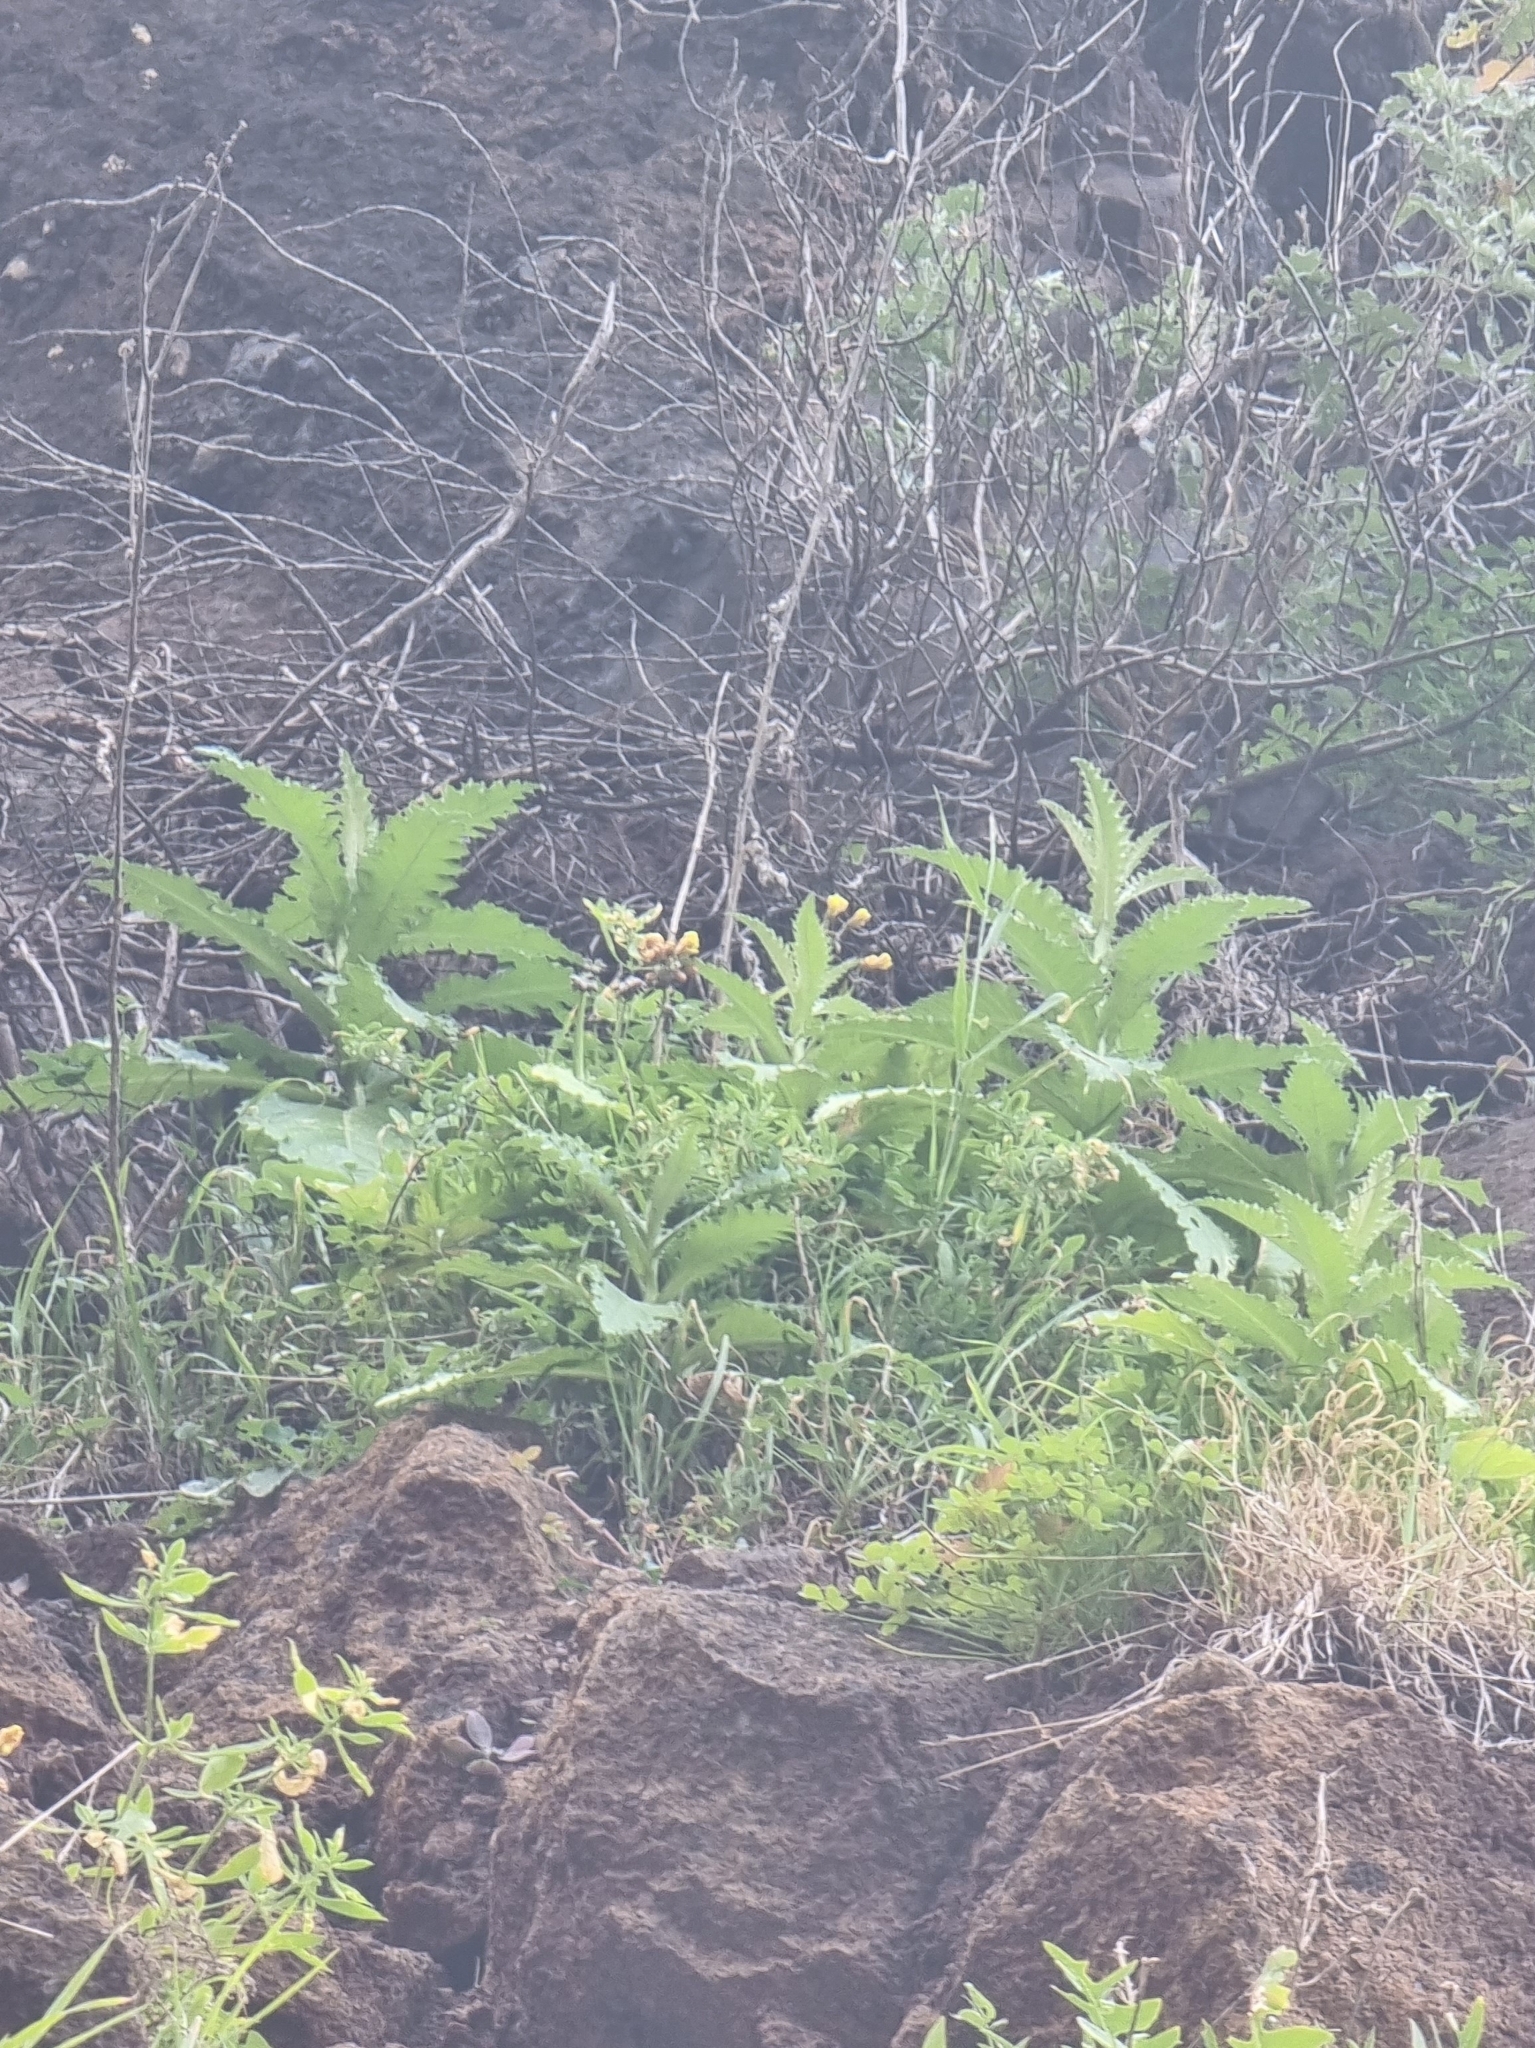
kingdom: Plantae
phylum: Tracheophyta
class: Magnoliopsida
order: Asterales
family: Asteraceae
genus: Carduus
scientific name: Carduus squarrosus
